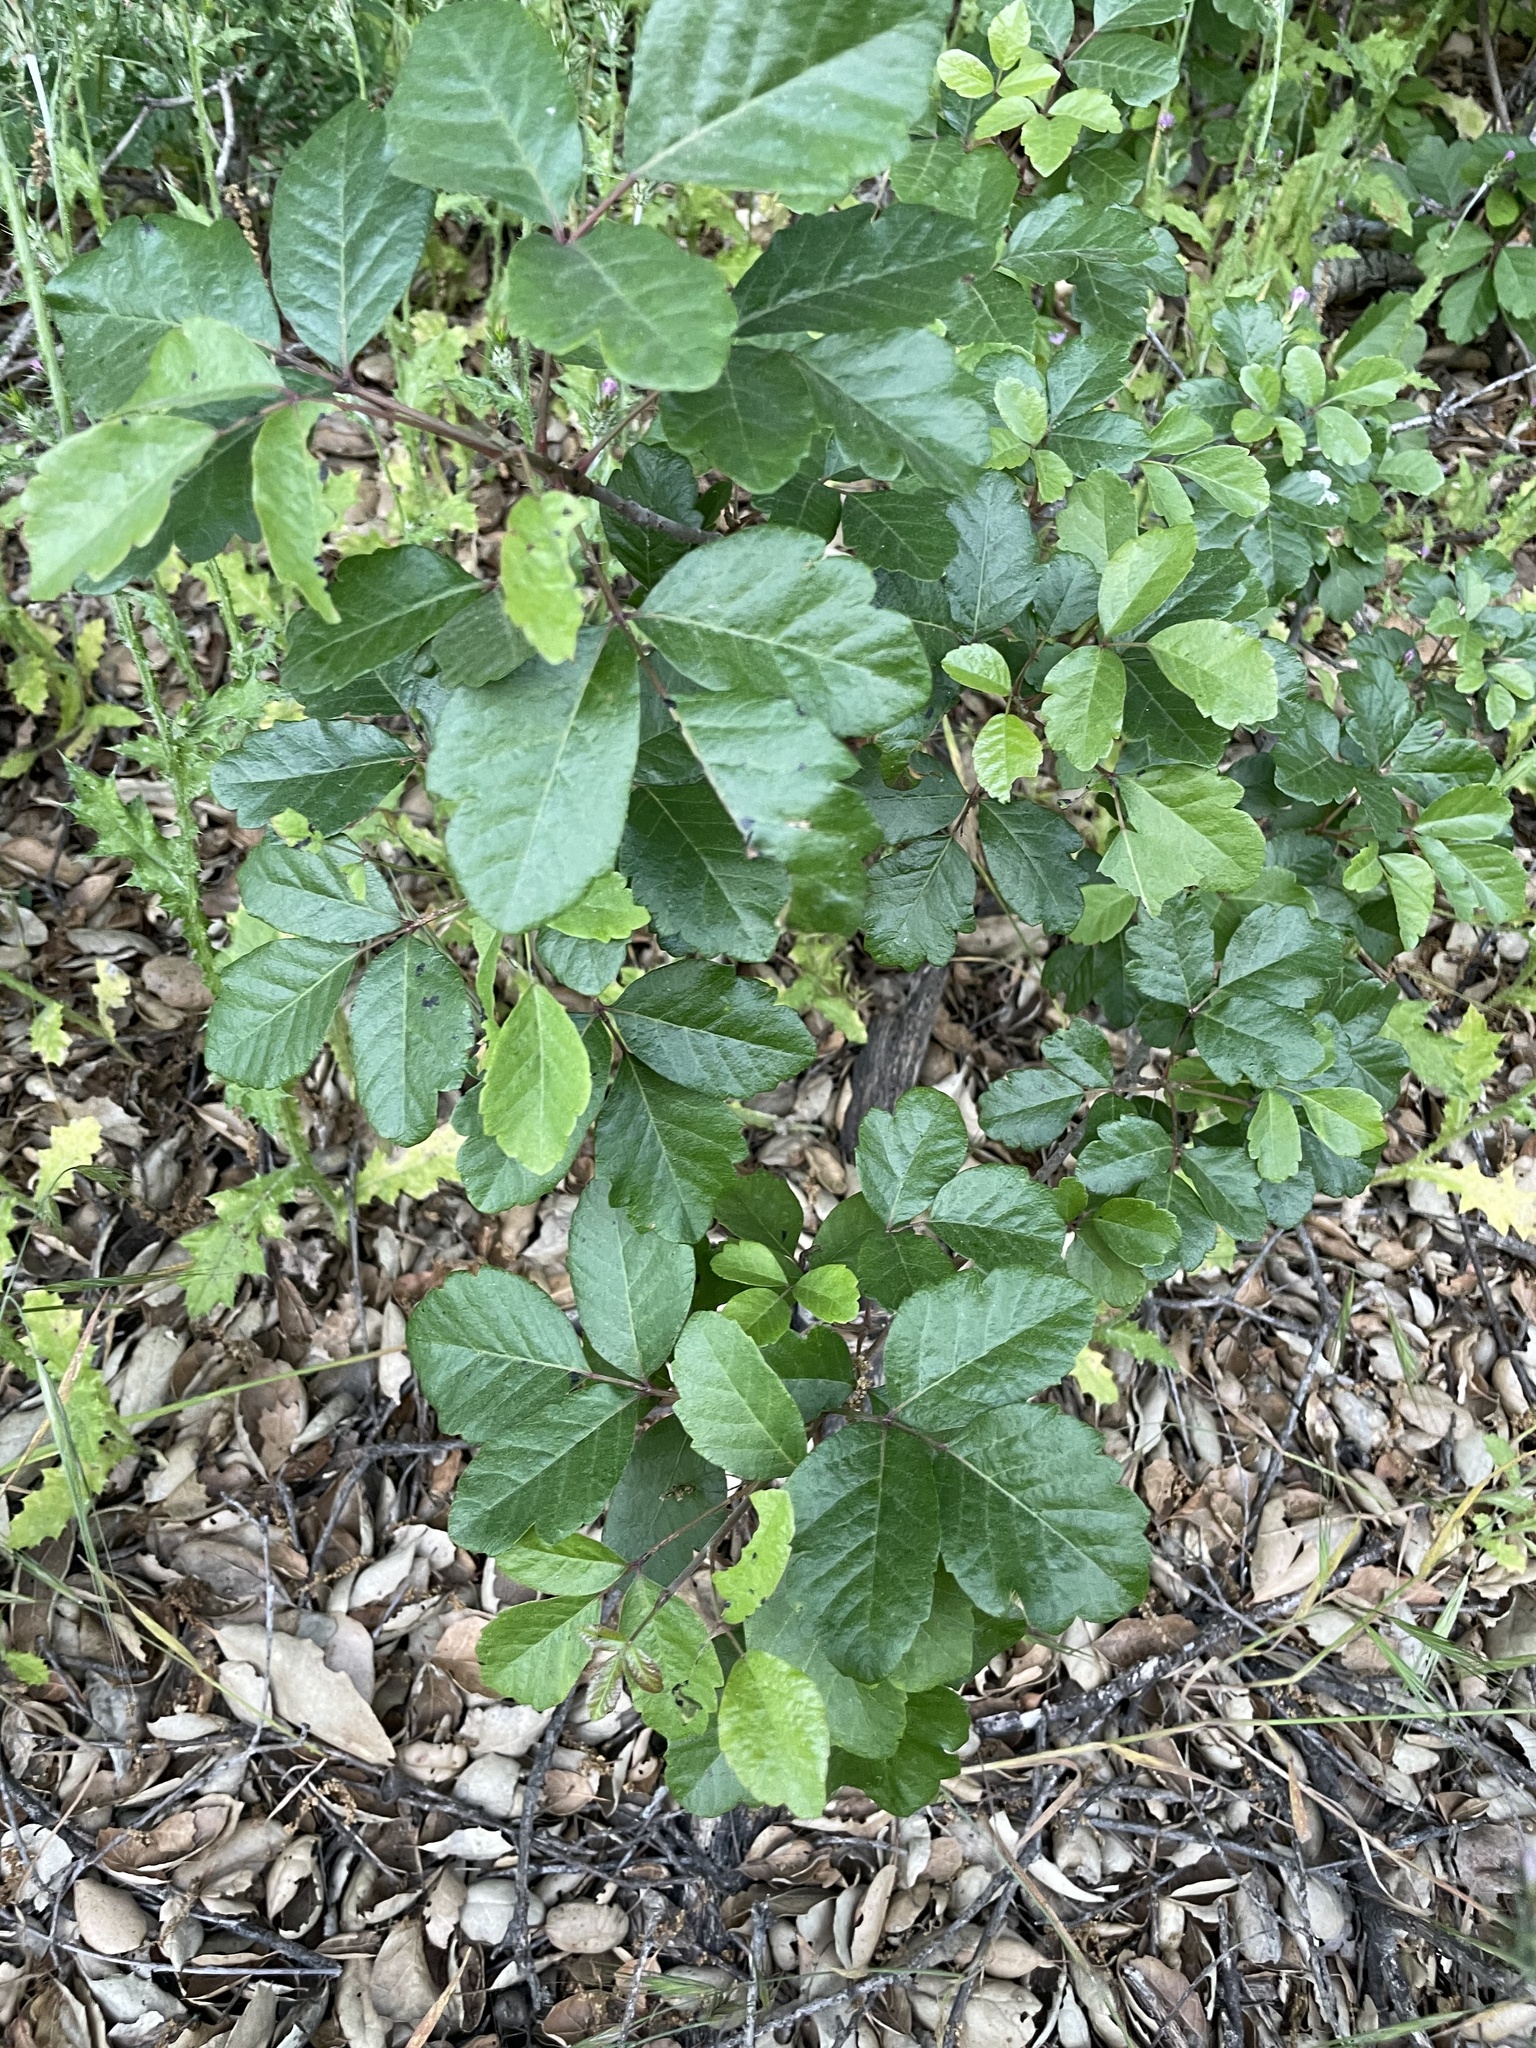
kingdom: Plantae
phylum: Tracheophyta
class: Magnoliopsida
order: Sapindales
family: Anacardiaceae
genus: Toxicodendron
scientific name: Toxicodendron diversilobum
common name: Pacific poison-oak
